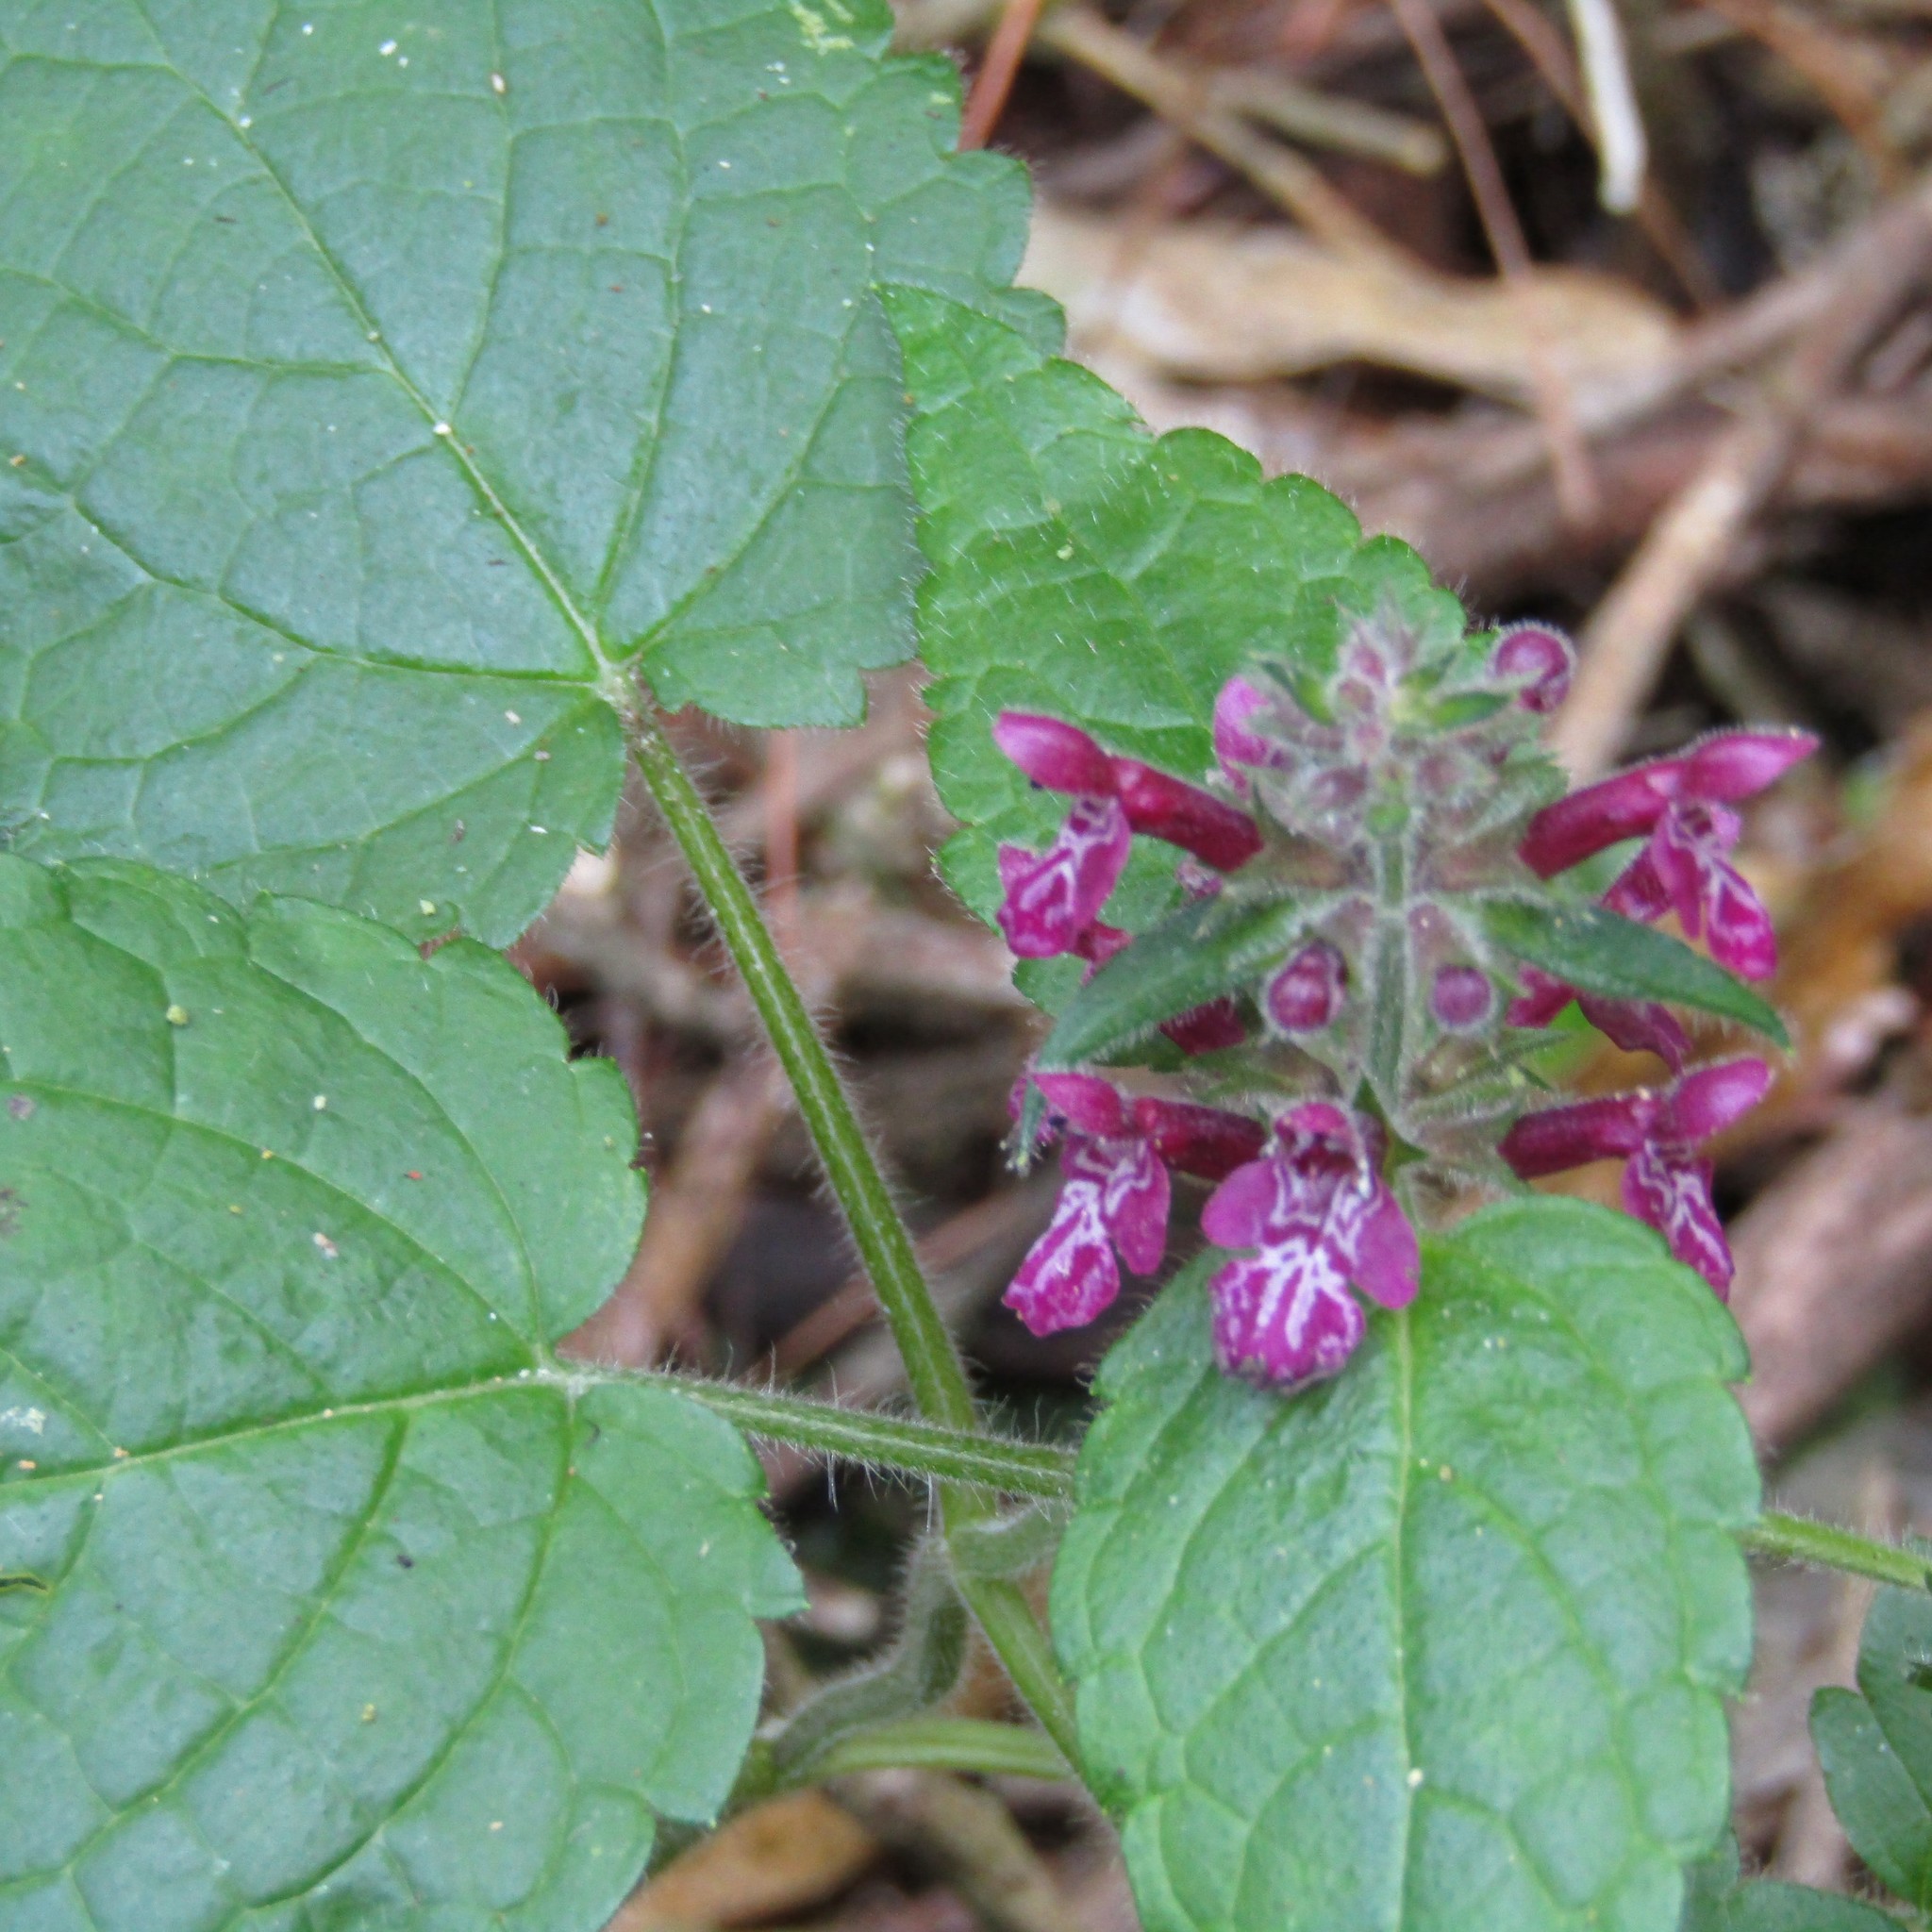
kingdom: Plantae
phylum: Tracheophyta
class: Magnoliopsida
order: Lamiales
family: Lamiaceae
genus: Stachys
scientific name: Stachys sylvatica
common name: Hedge woundwort
